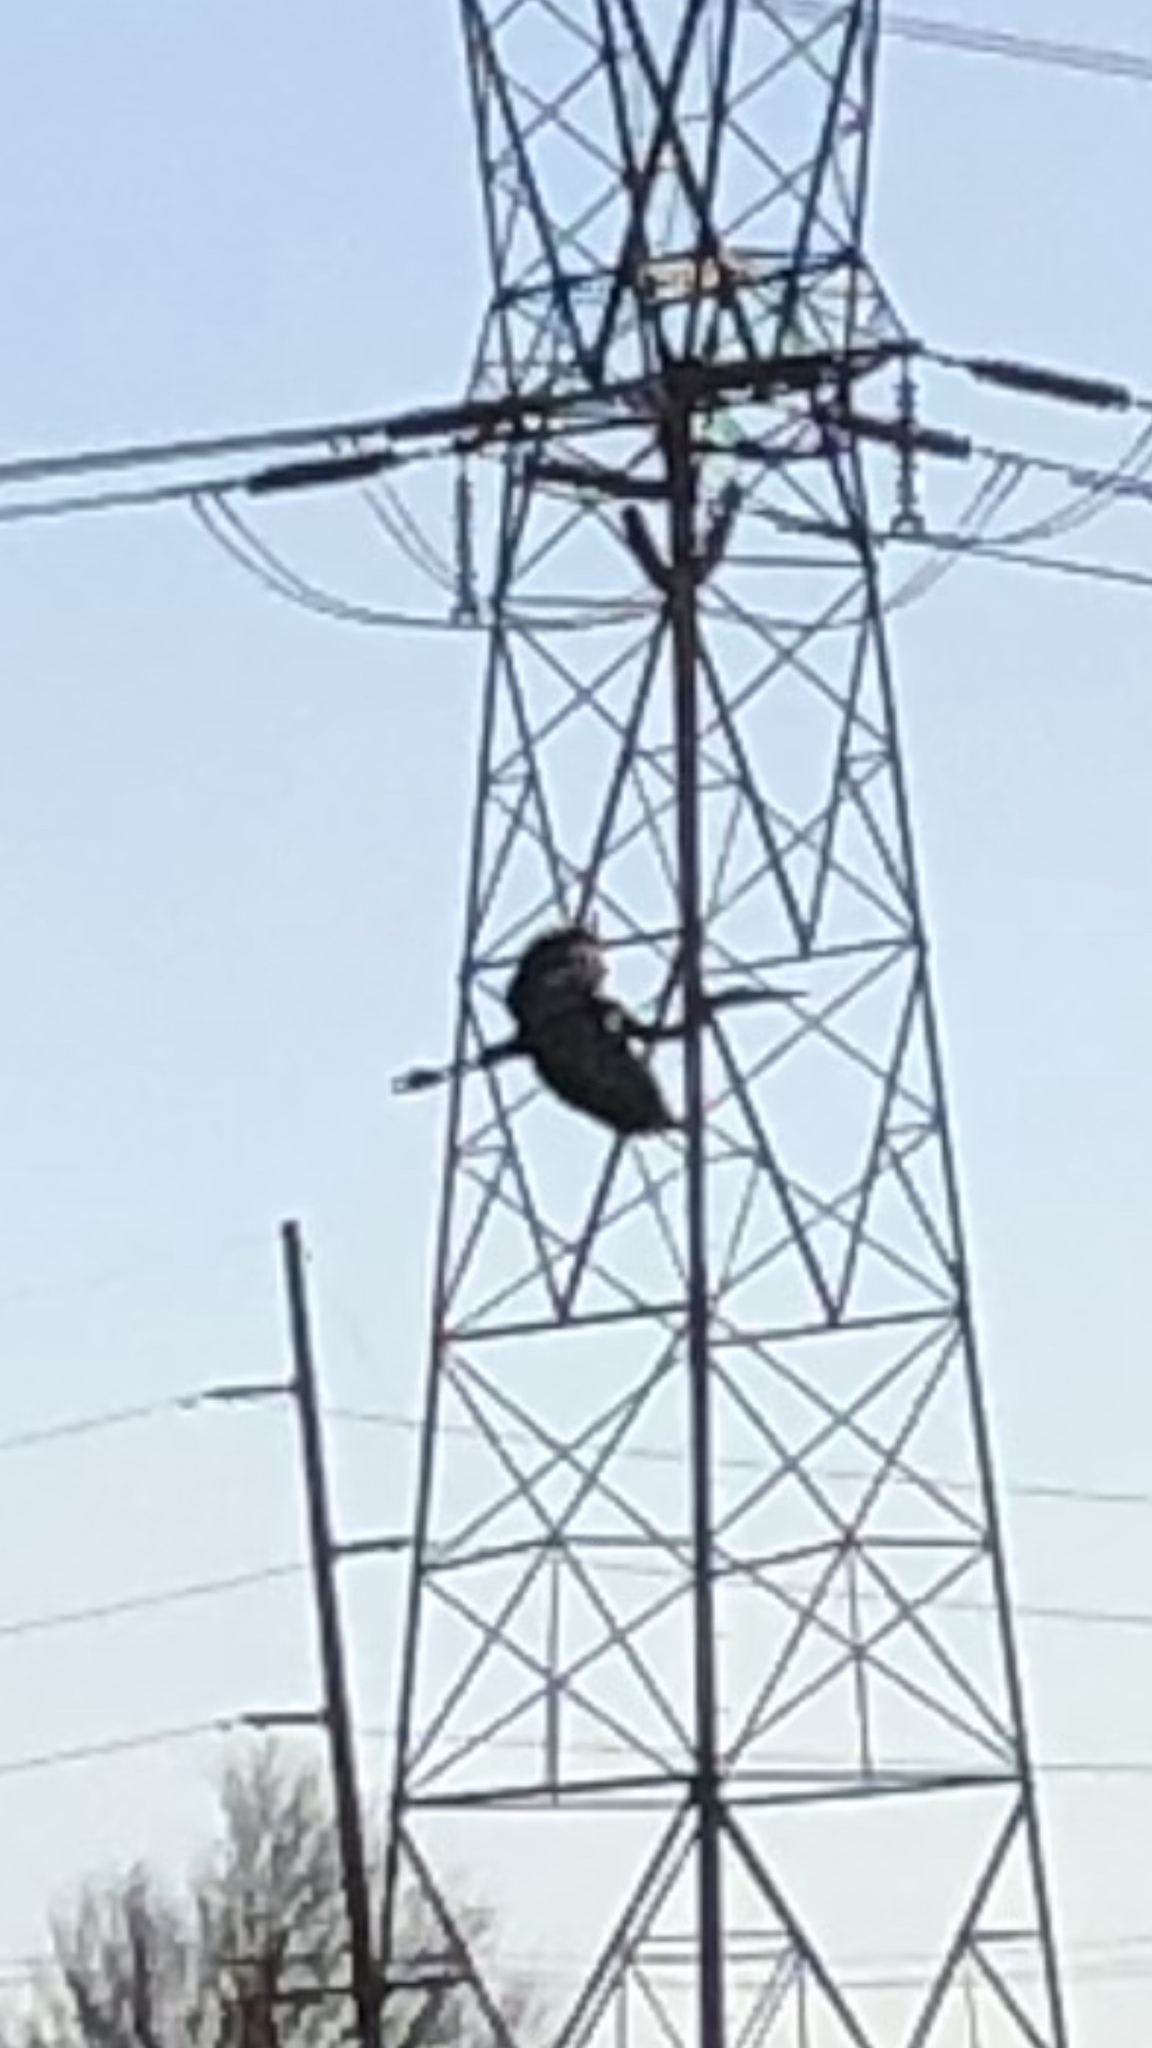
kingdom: Animalia
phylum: Chordata
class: Aves
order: Pelecaniformes
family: Ardeidae
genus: Ardea
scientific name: Ardea herodias
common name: Great blue heron
